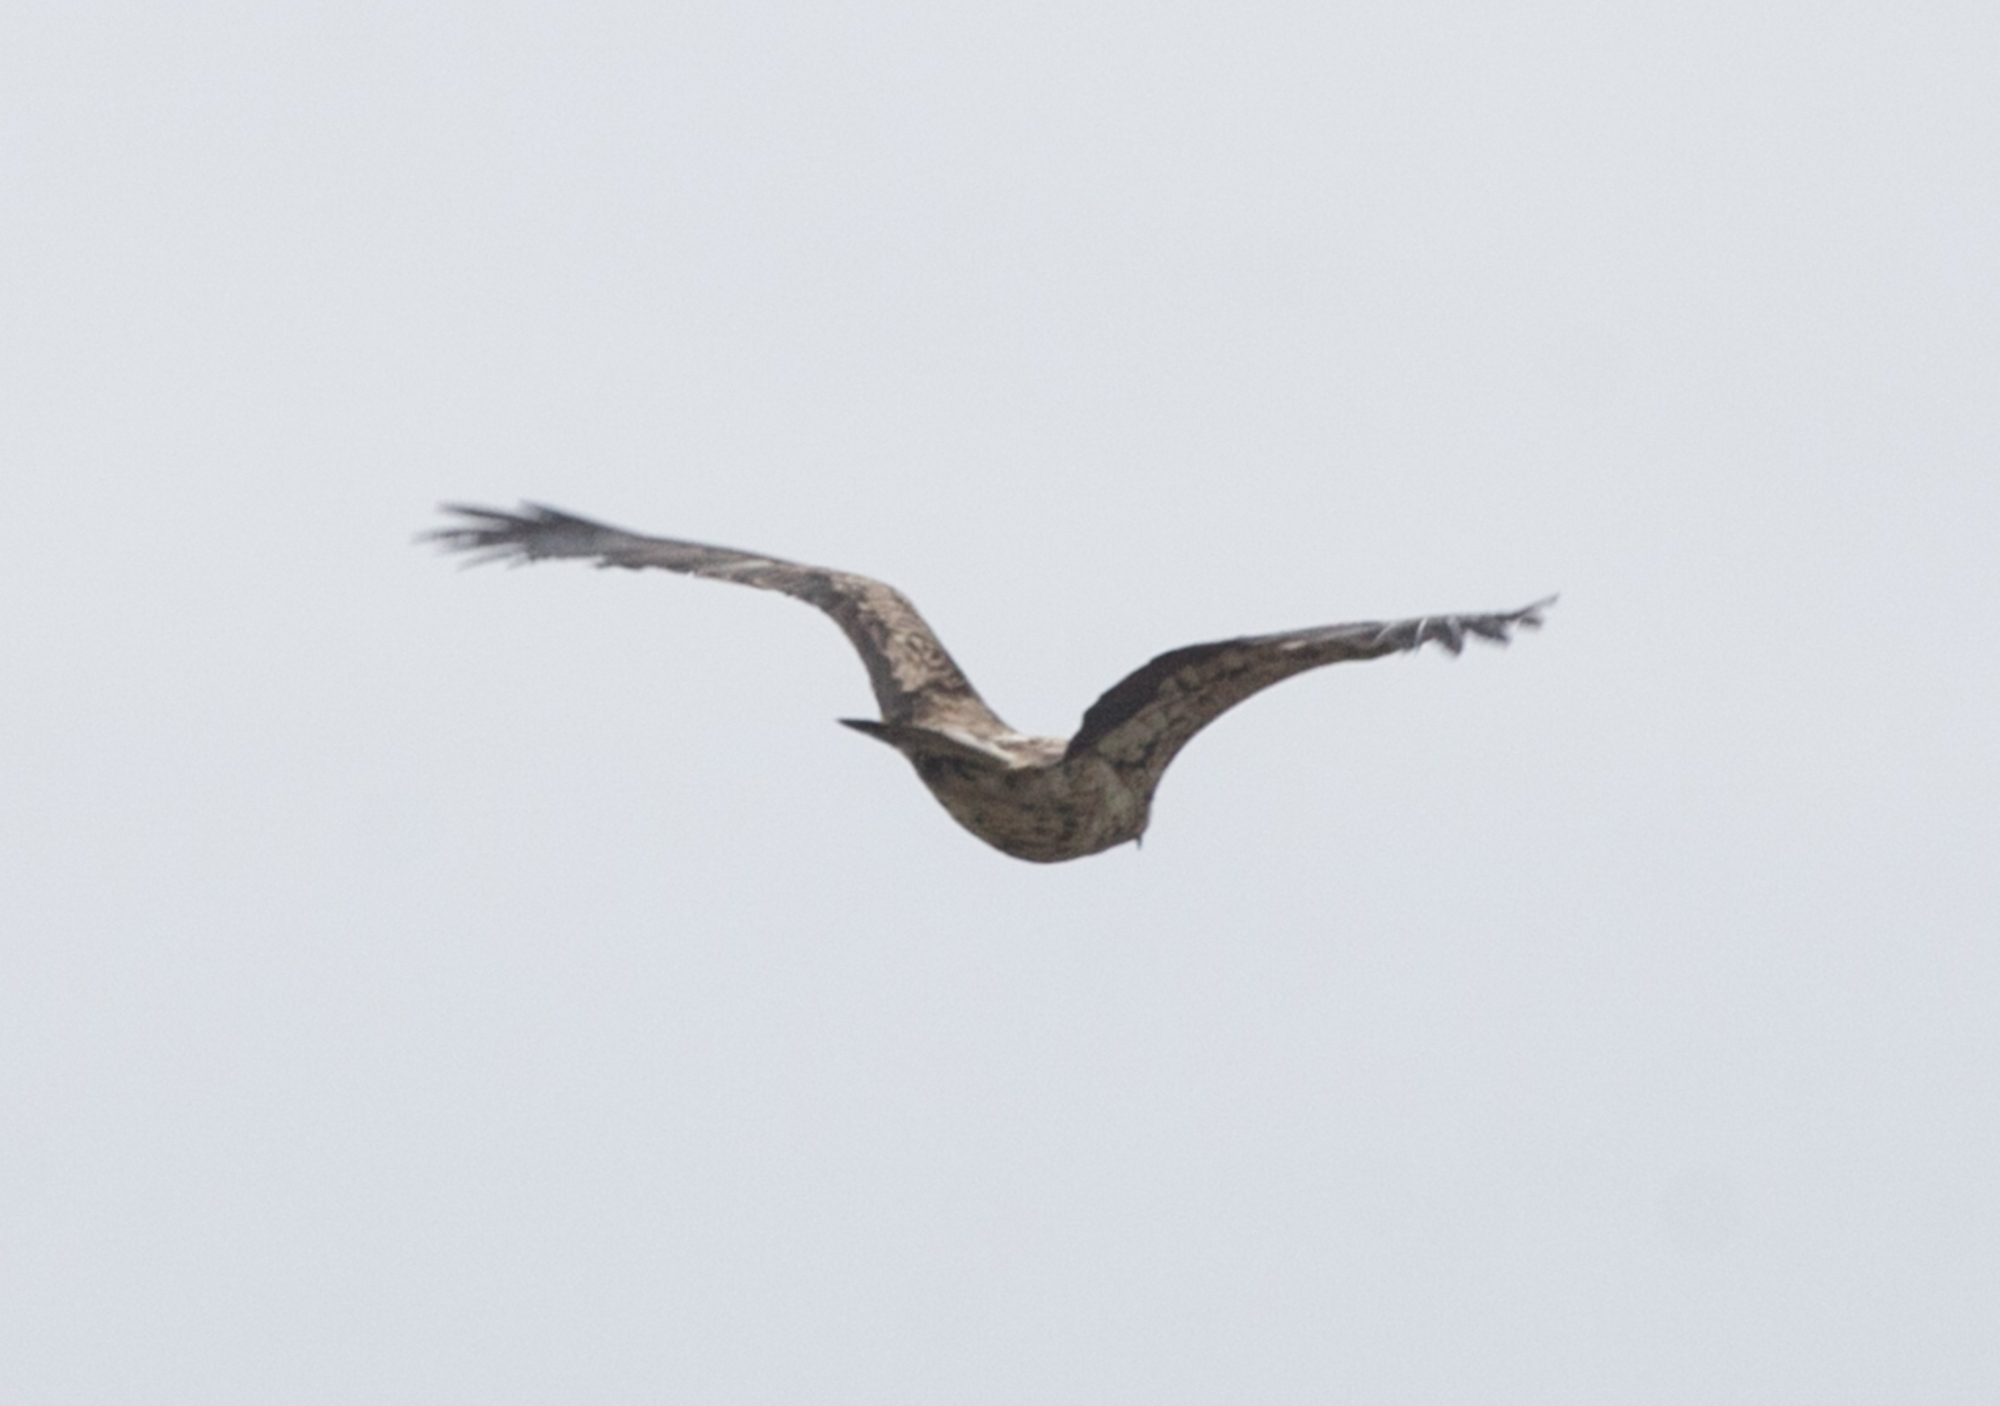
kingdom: Animalia
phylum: Chordata
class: Aves
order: Accipitriformes
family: Accipitridae
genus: Aquila
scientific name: Aquila heliaca
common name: Eastern imperial eagle
